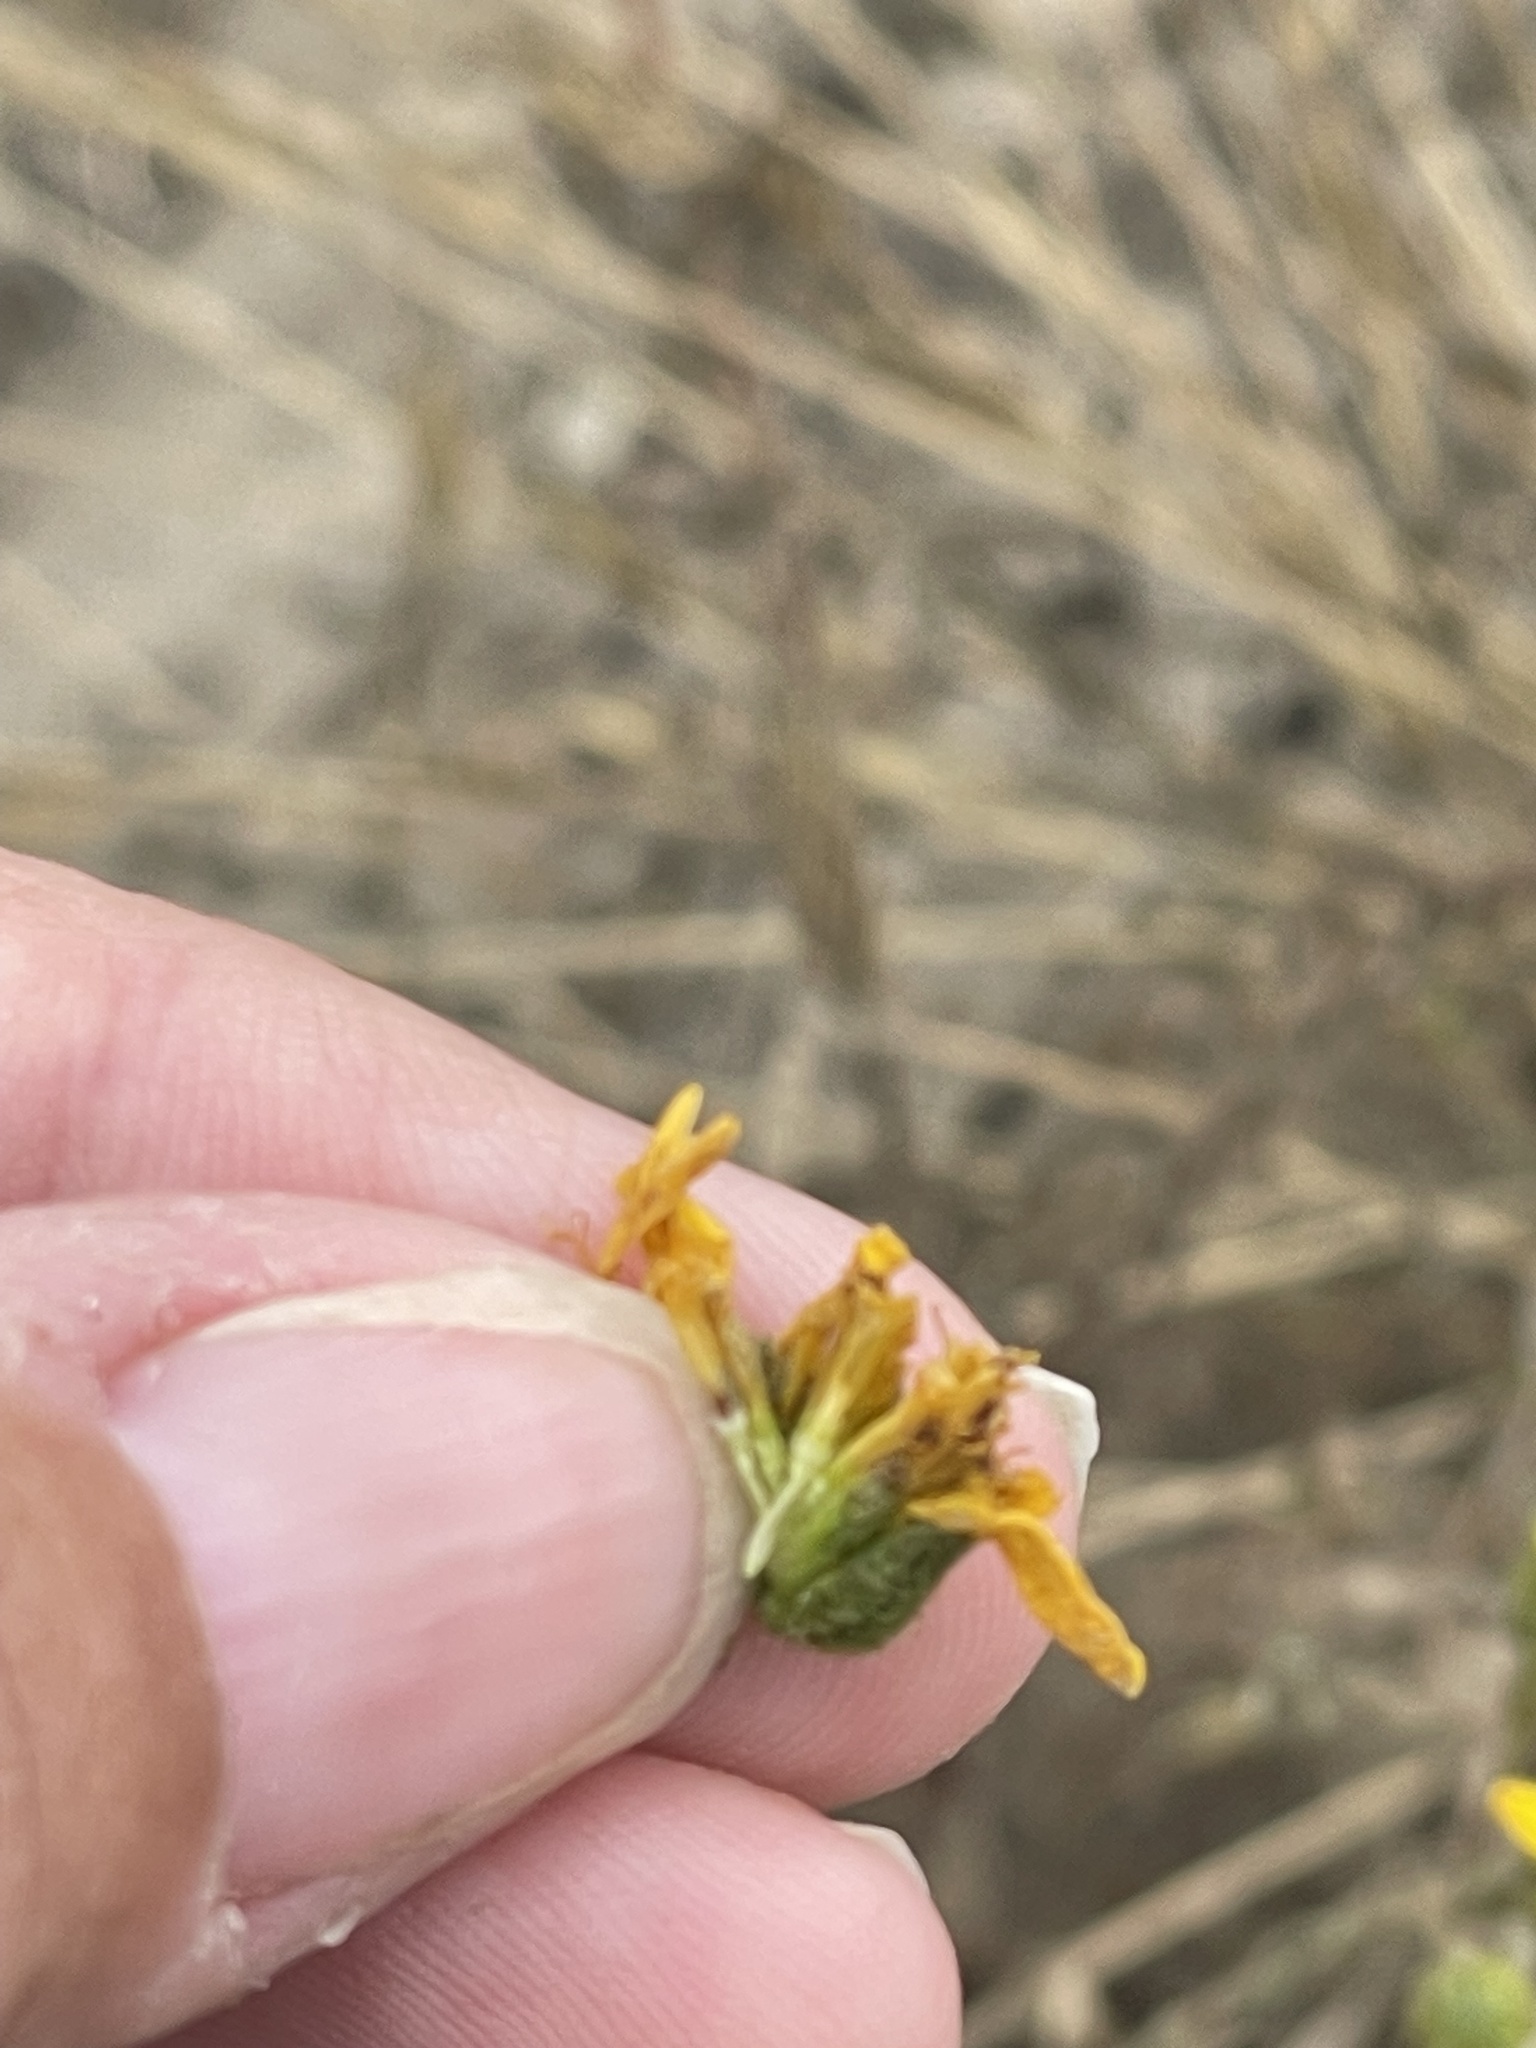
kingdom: Plantae
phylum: Tracheophyta
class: Magnoliopsida
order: Asterales
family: Asteraceae
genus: Deinandra
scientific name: Deinandra conjugens
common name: Otay tarplant
